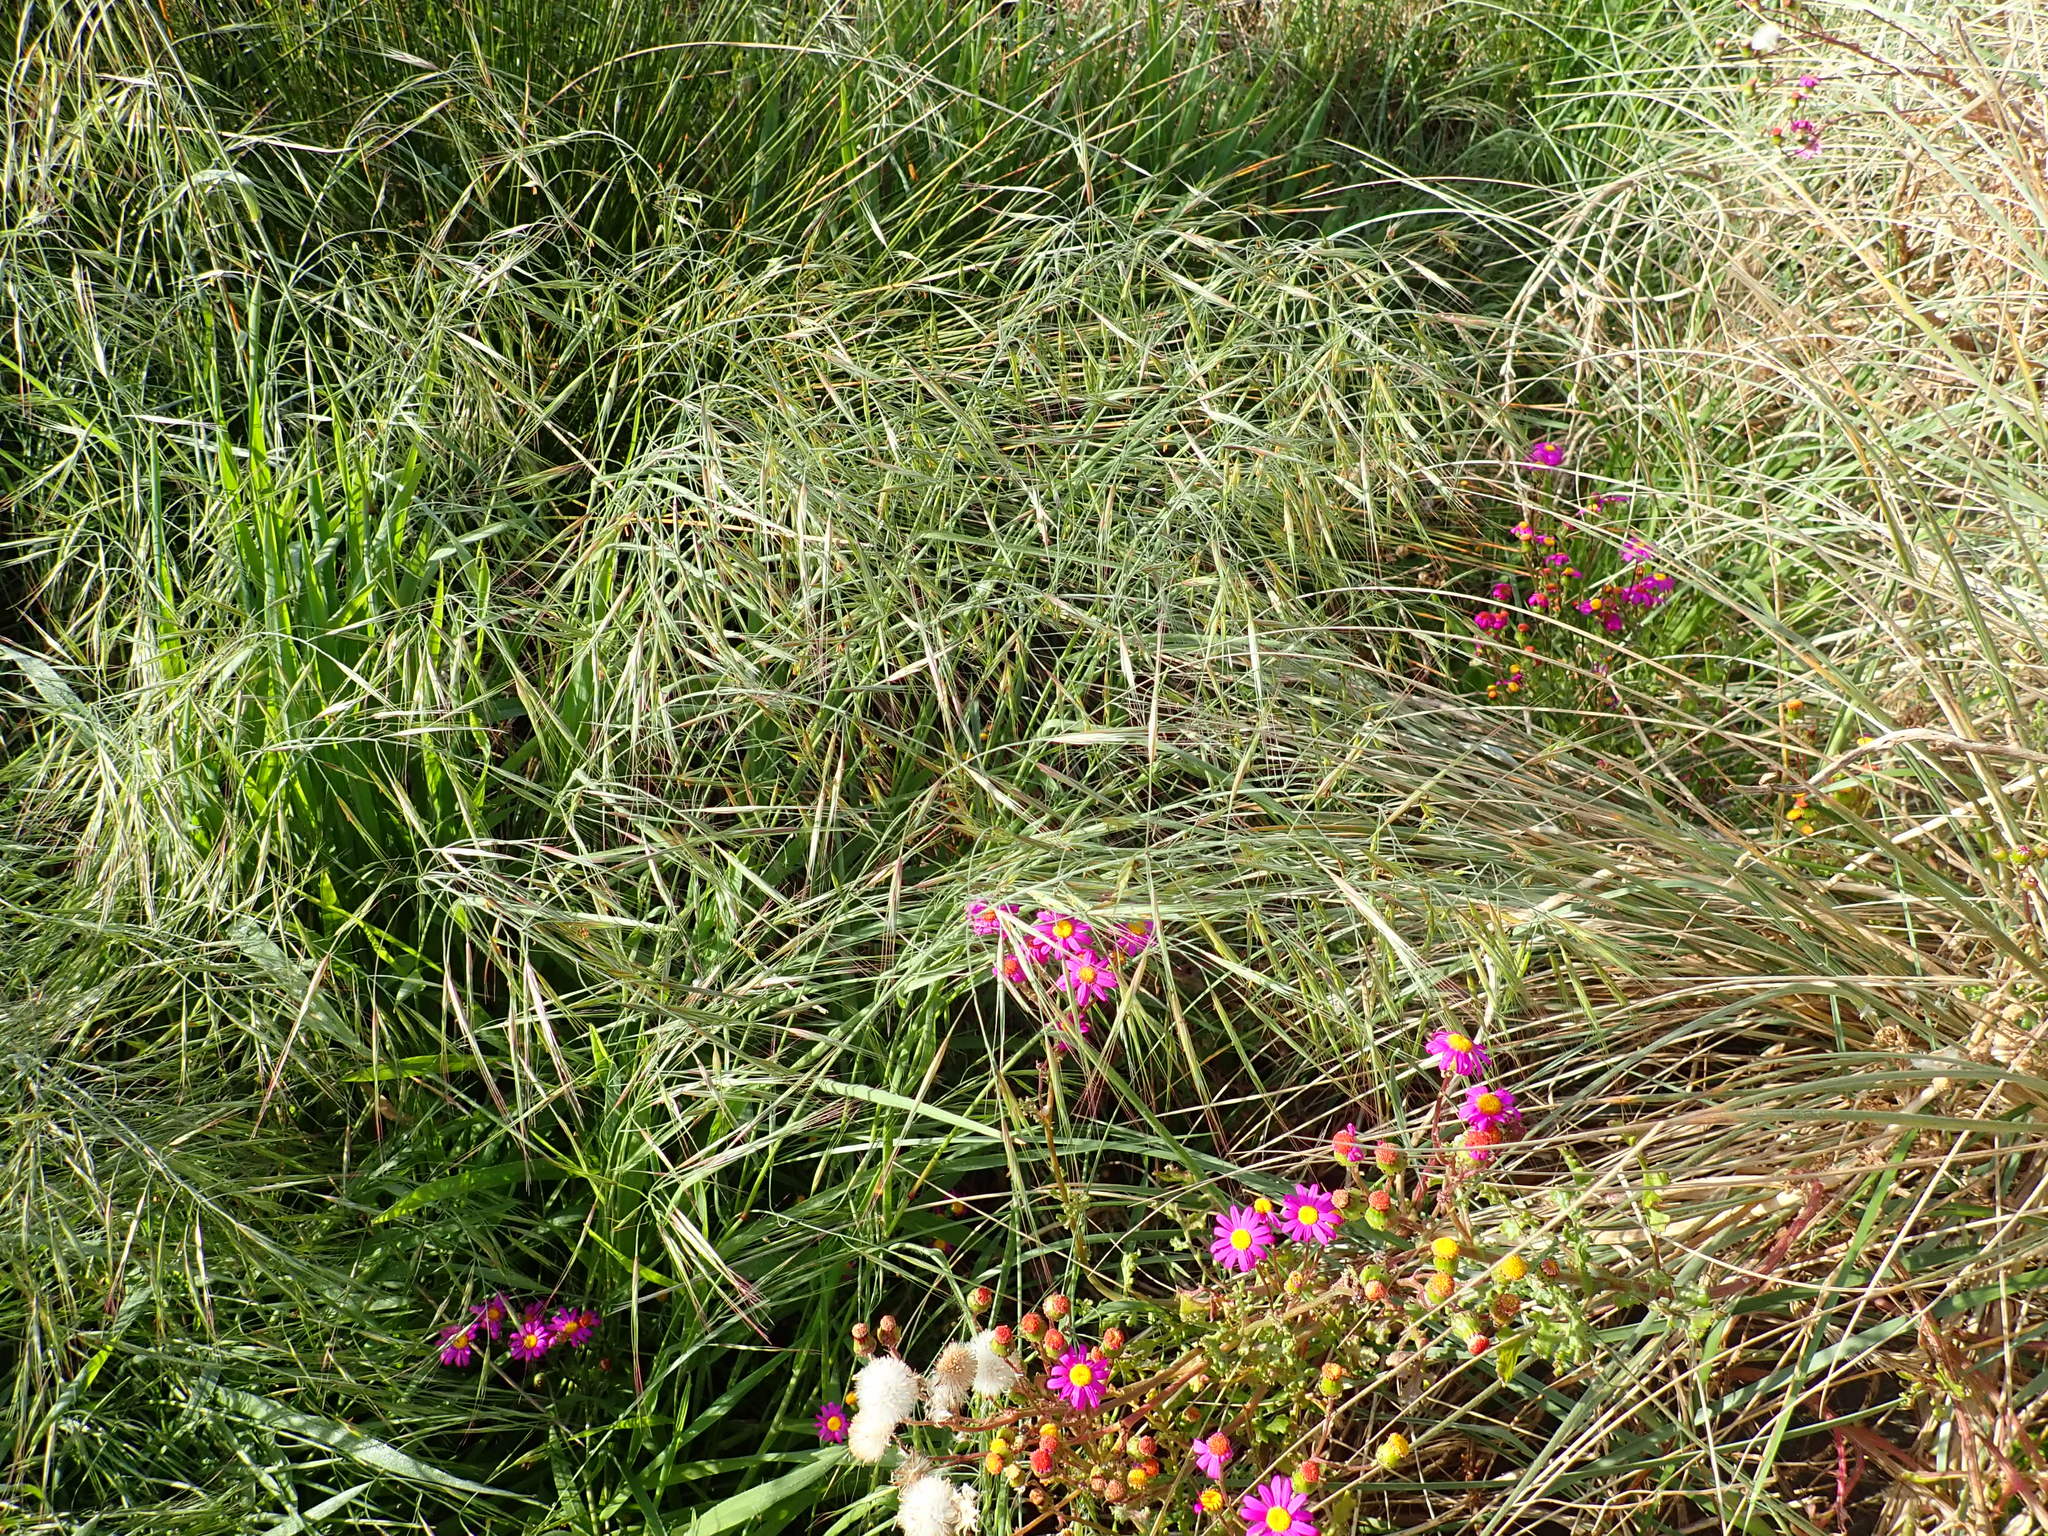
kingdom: Plantae
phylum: Tracheophyta
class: Liliopsida
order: Poales
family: Poaceae
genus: Bromus
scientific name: Bromus diandrus
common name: Ripgut brome
